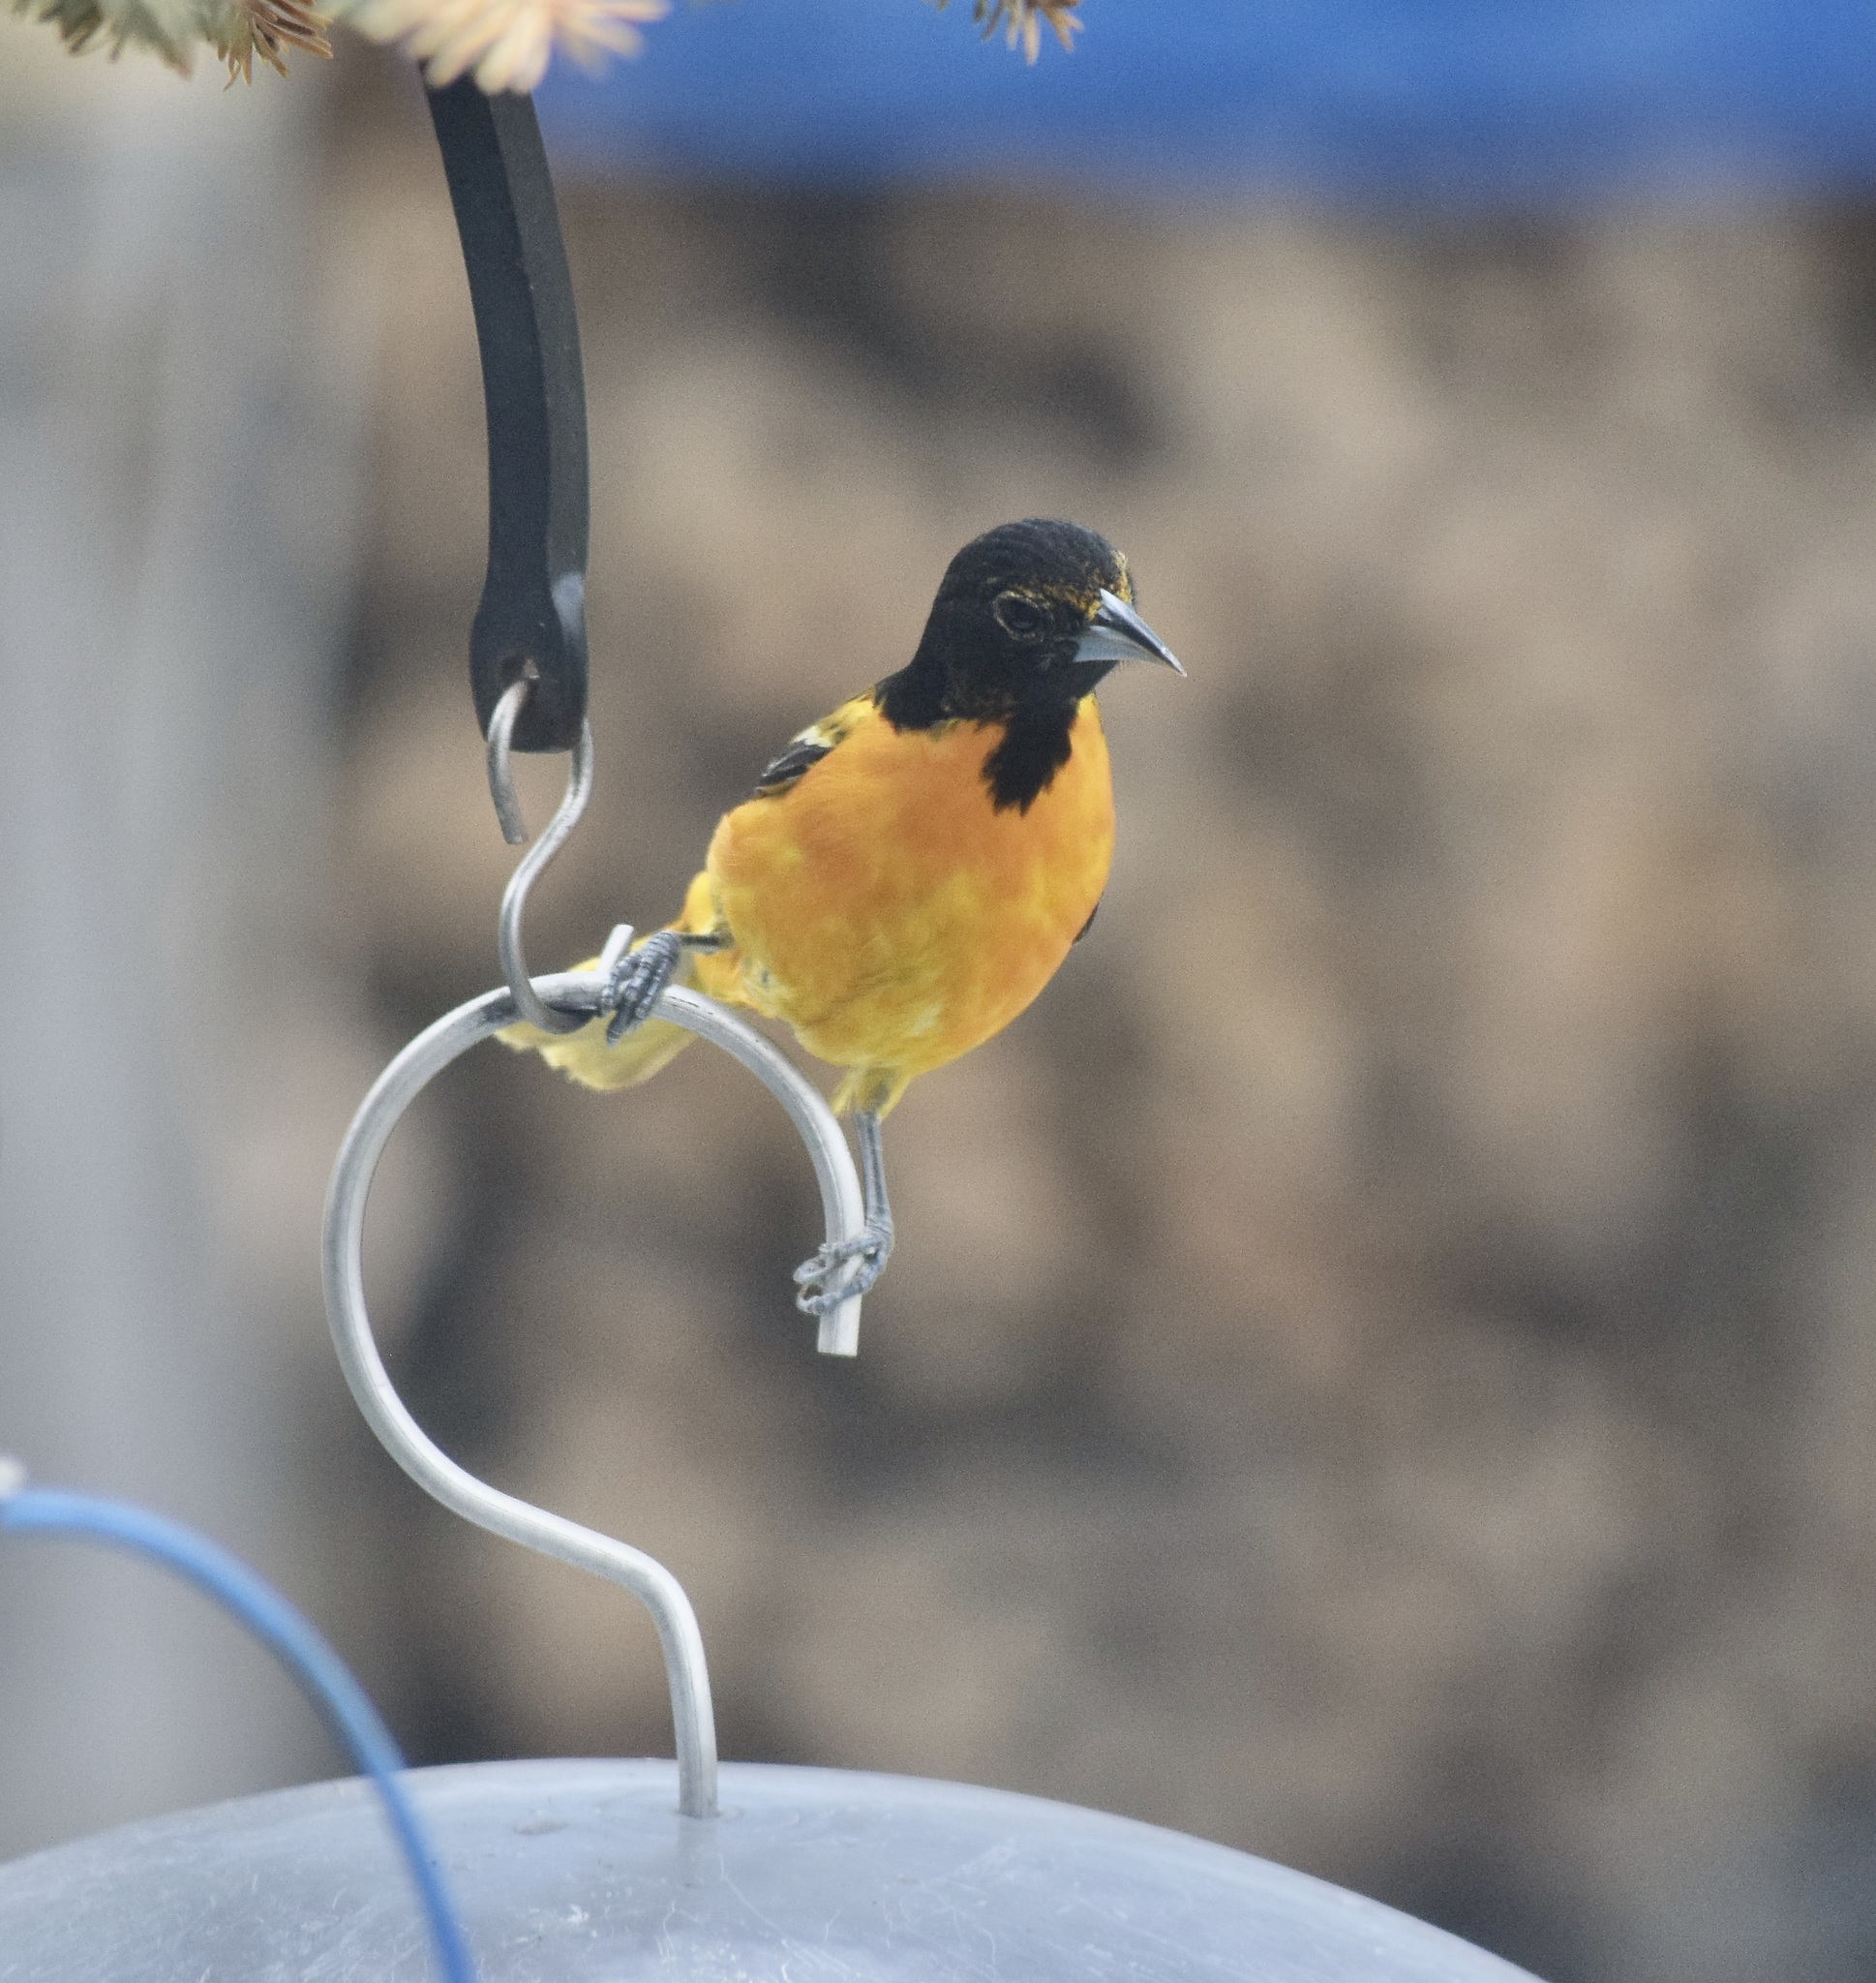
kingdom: Animalia
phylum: Chordata
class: Aves
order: Passeriformes
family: Icteridae
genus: Icterus
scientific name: Icterus galbula
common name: Baltimore oriole
